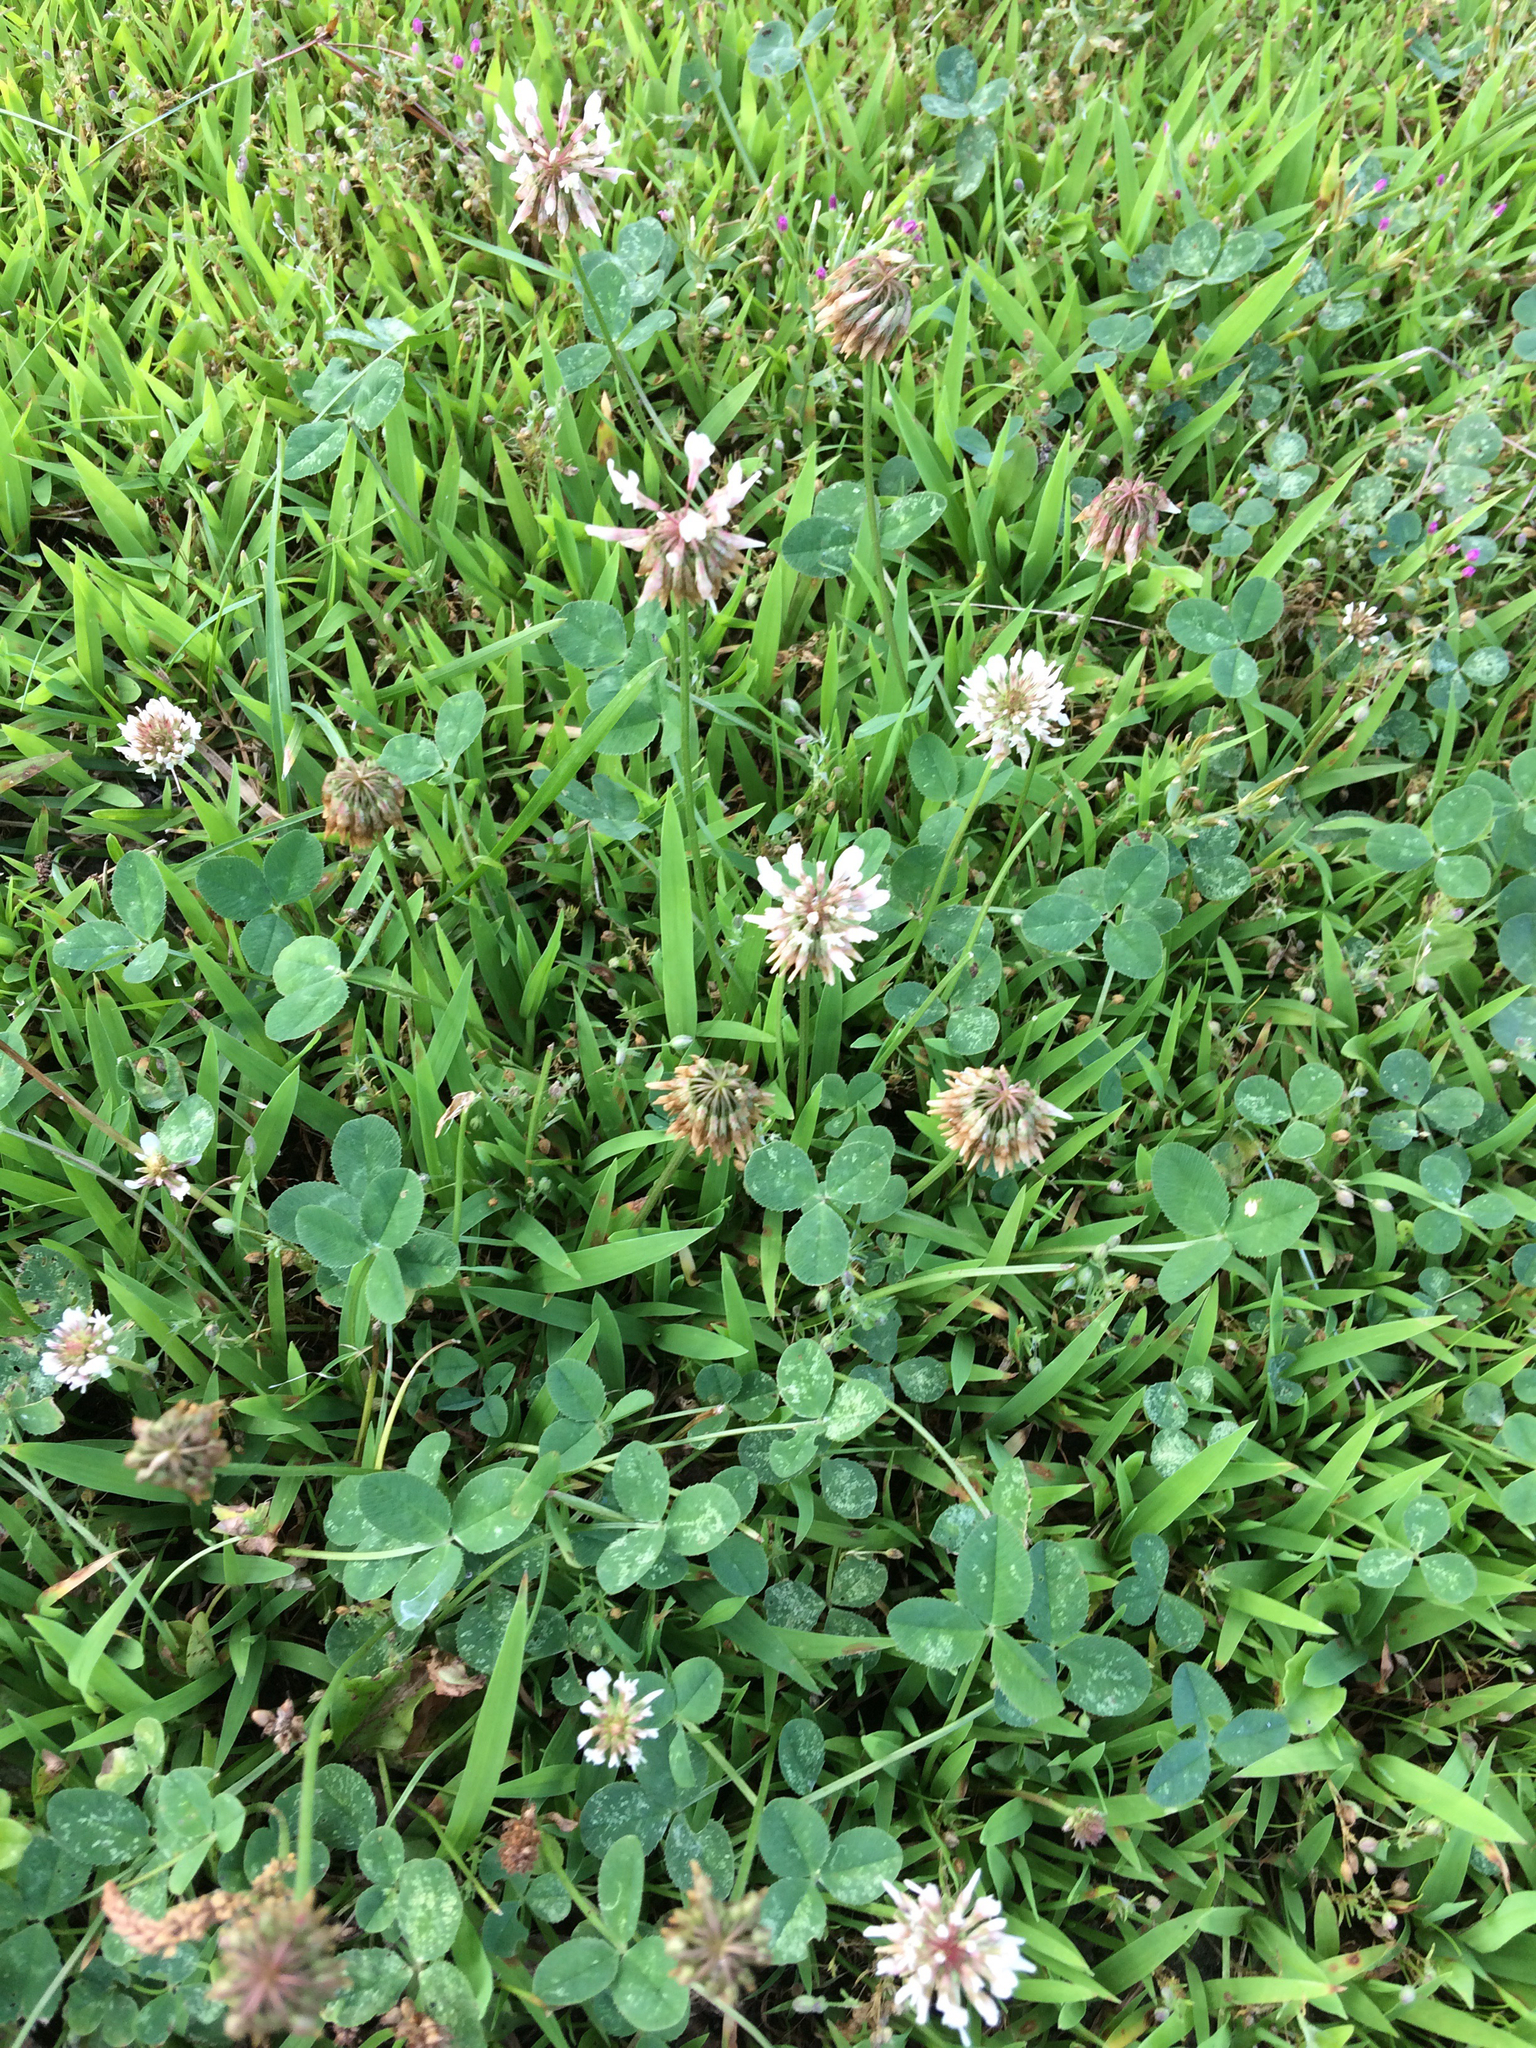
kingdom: Plantae
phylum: Tracheophyta
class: Magnoliopsida
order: Fabales
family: Fabaceae
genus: Trifolium
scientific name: Trifolium repens
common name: White clover
